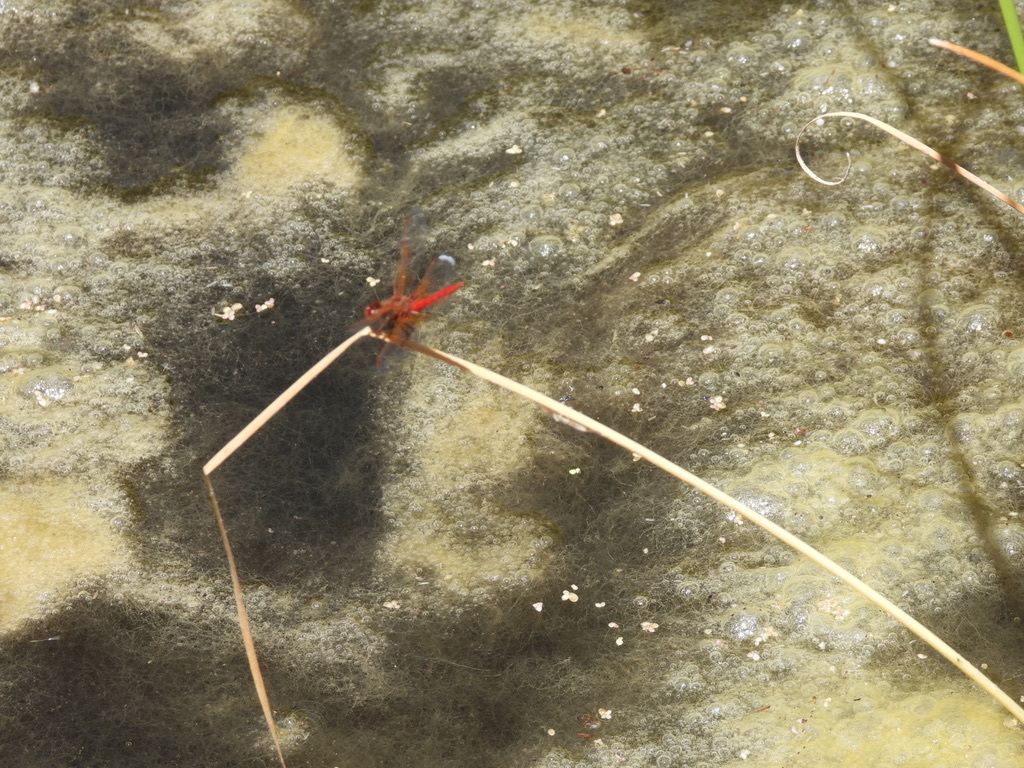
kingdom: Animalia
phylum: Arthropoda
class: Insecta
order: Odonata
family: Libellulidae
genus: Sympetrum
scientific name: Sympetrum illotum
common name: Cardinal meadowhawk
